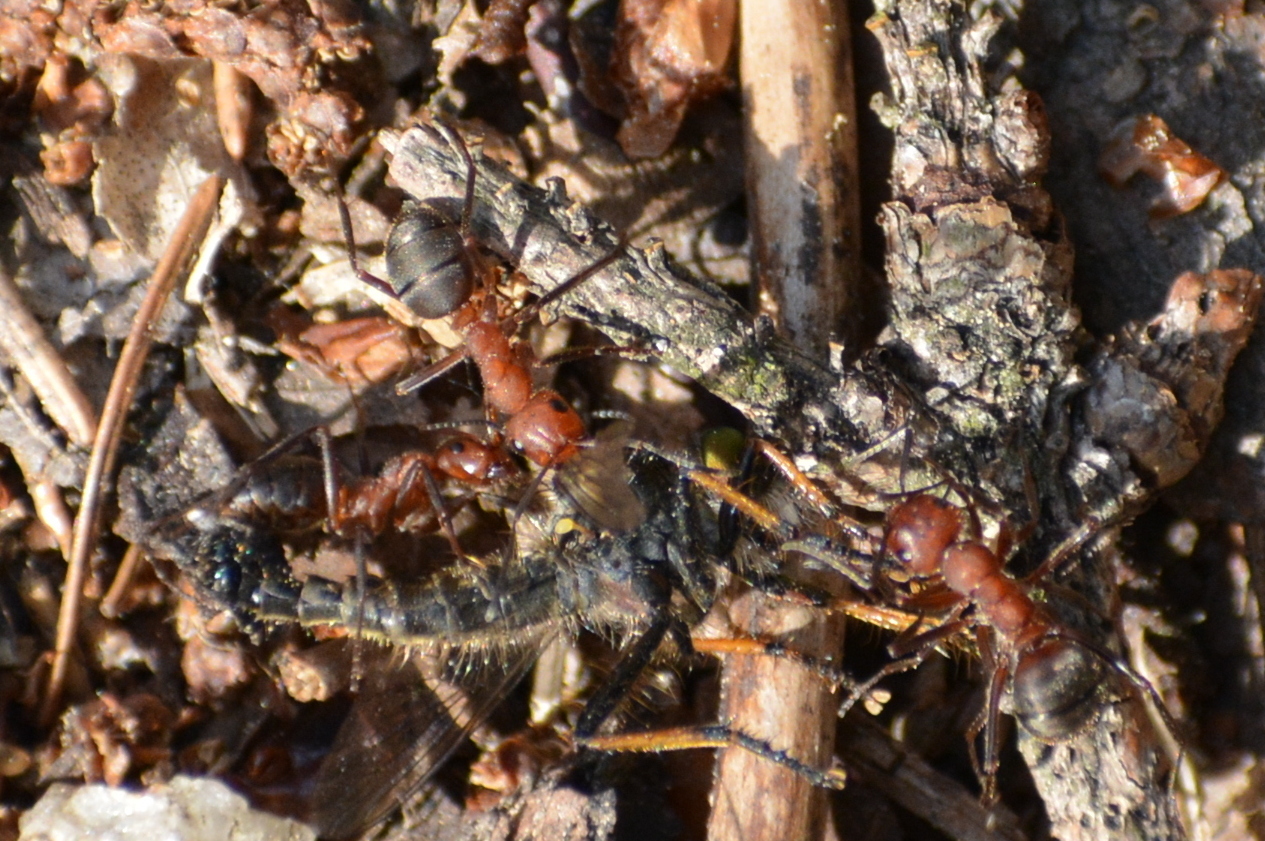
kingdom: Animalia
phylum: Arthropoda
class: Insecta
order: Hymenoptera
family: Formicidae
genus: Formica
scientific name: Formica truncorum
